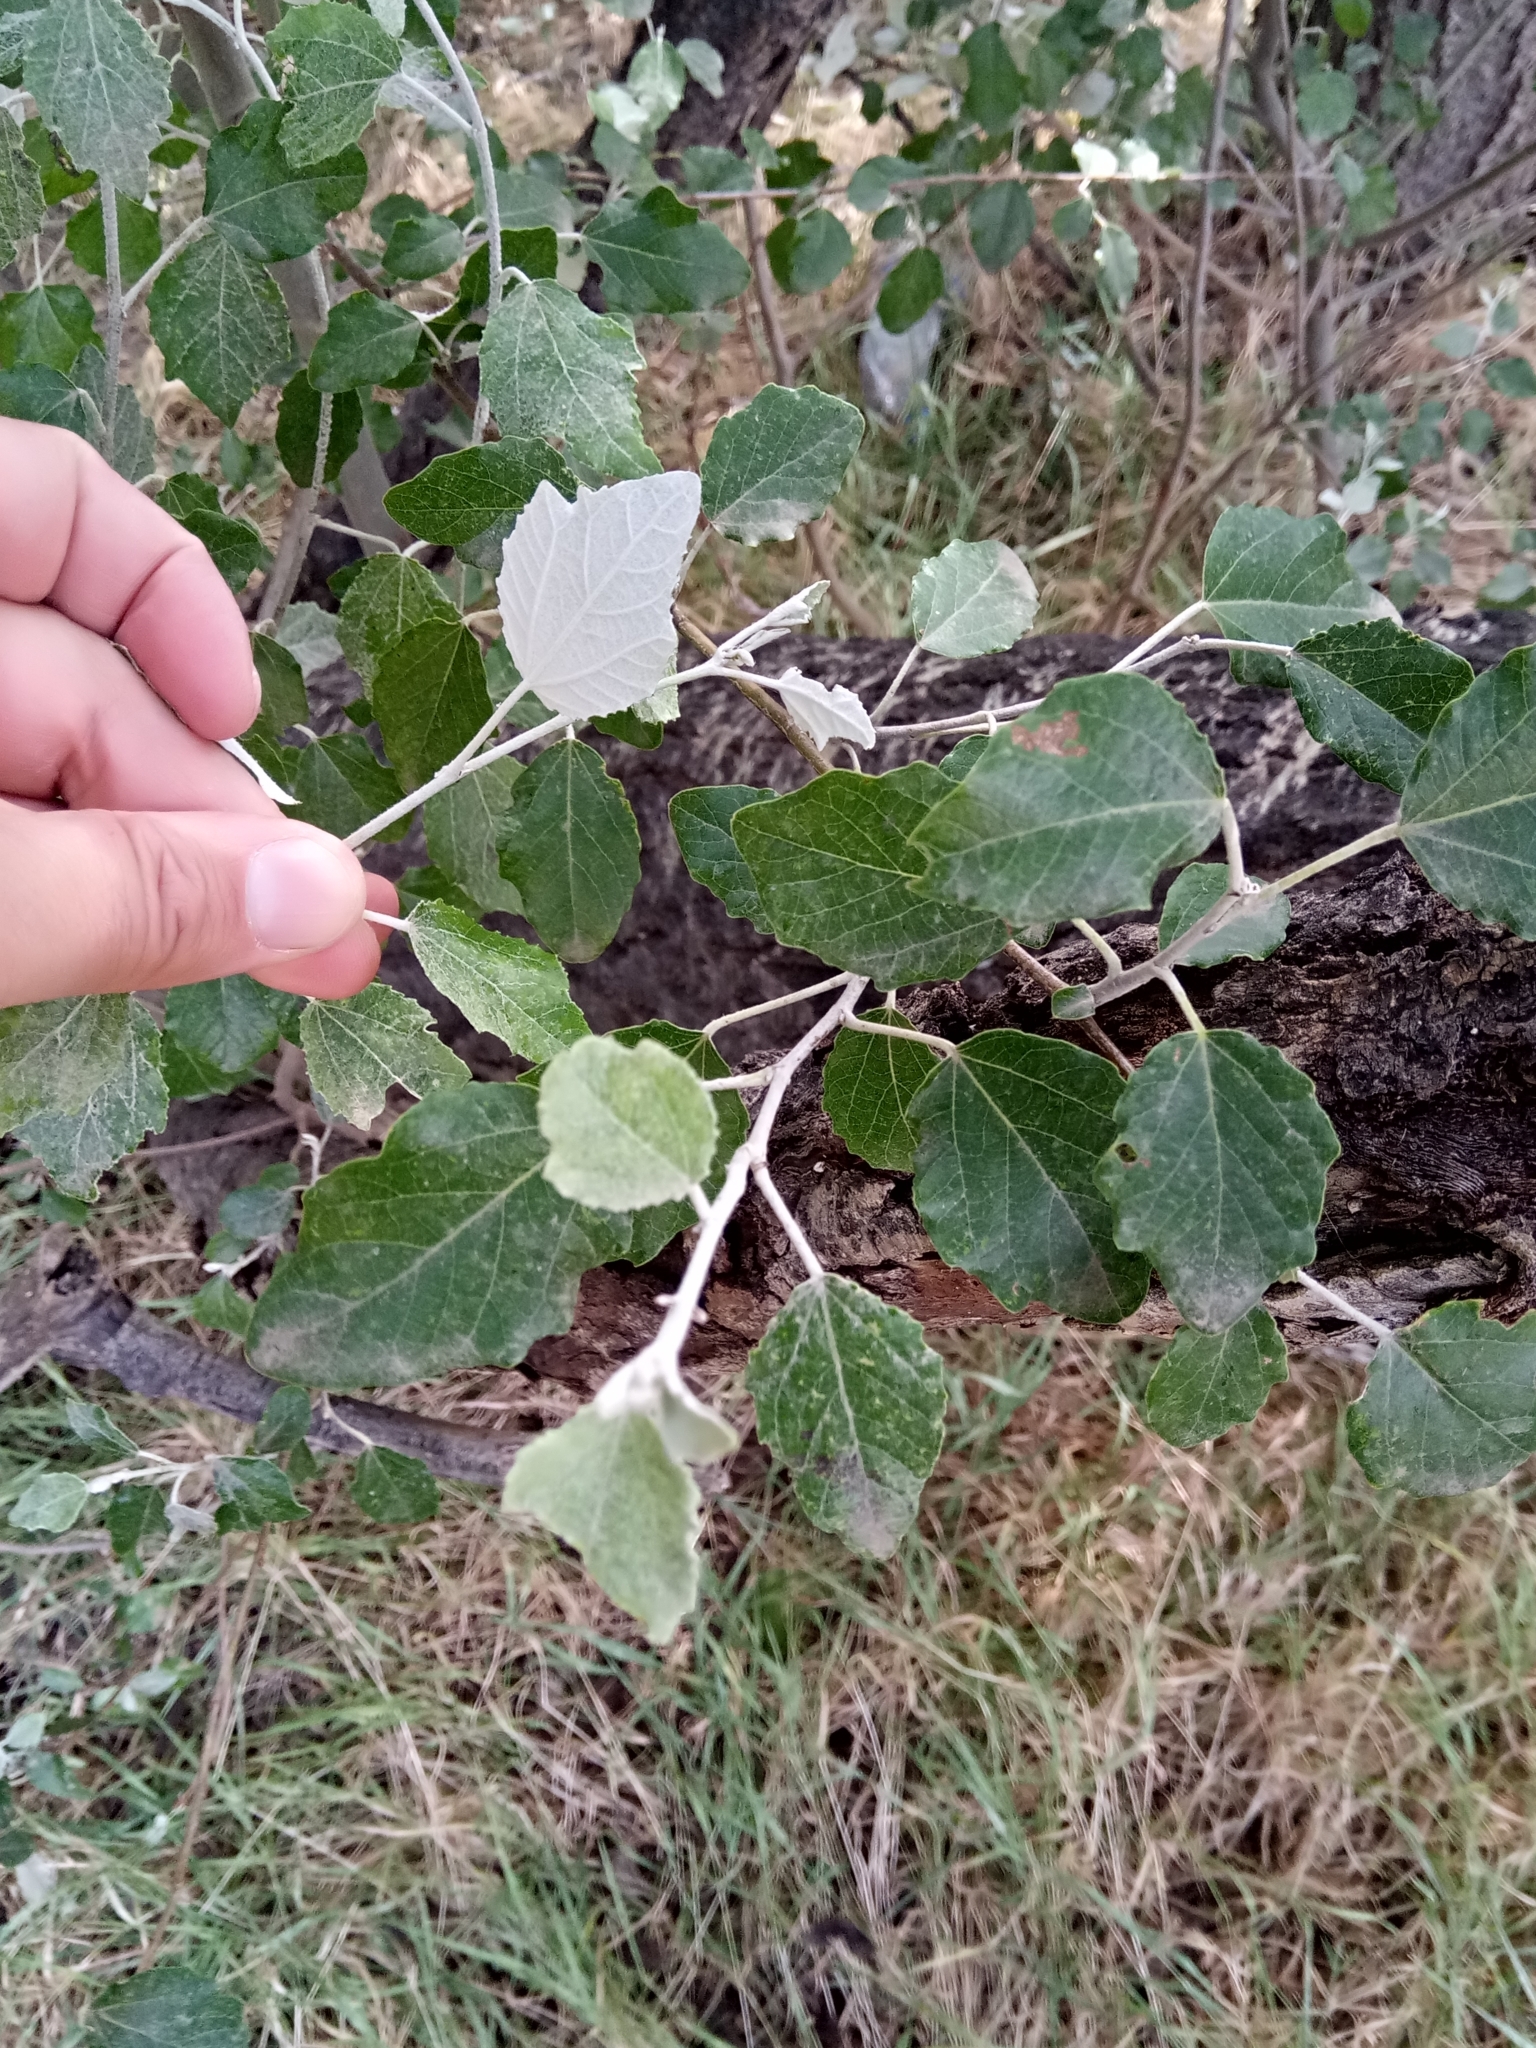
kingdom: Plantae
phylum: Tracheophyta
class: Magnoliopsida
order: Malpighiales
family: Salicaceae
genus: Populus
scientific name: Populus alba
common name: White poplar
